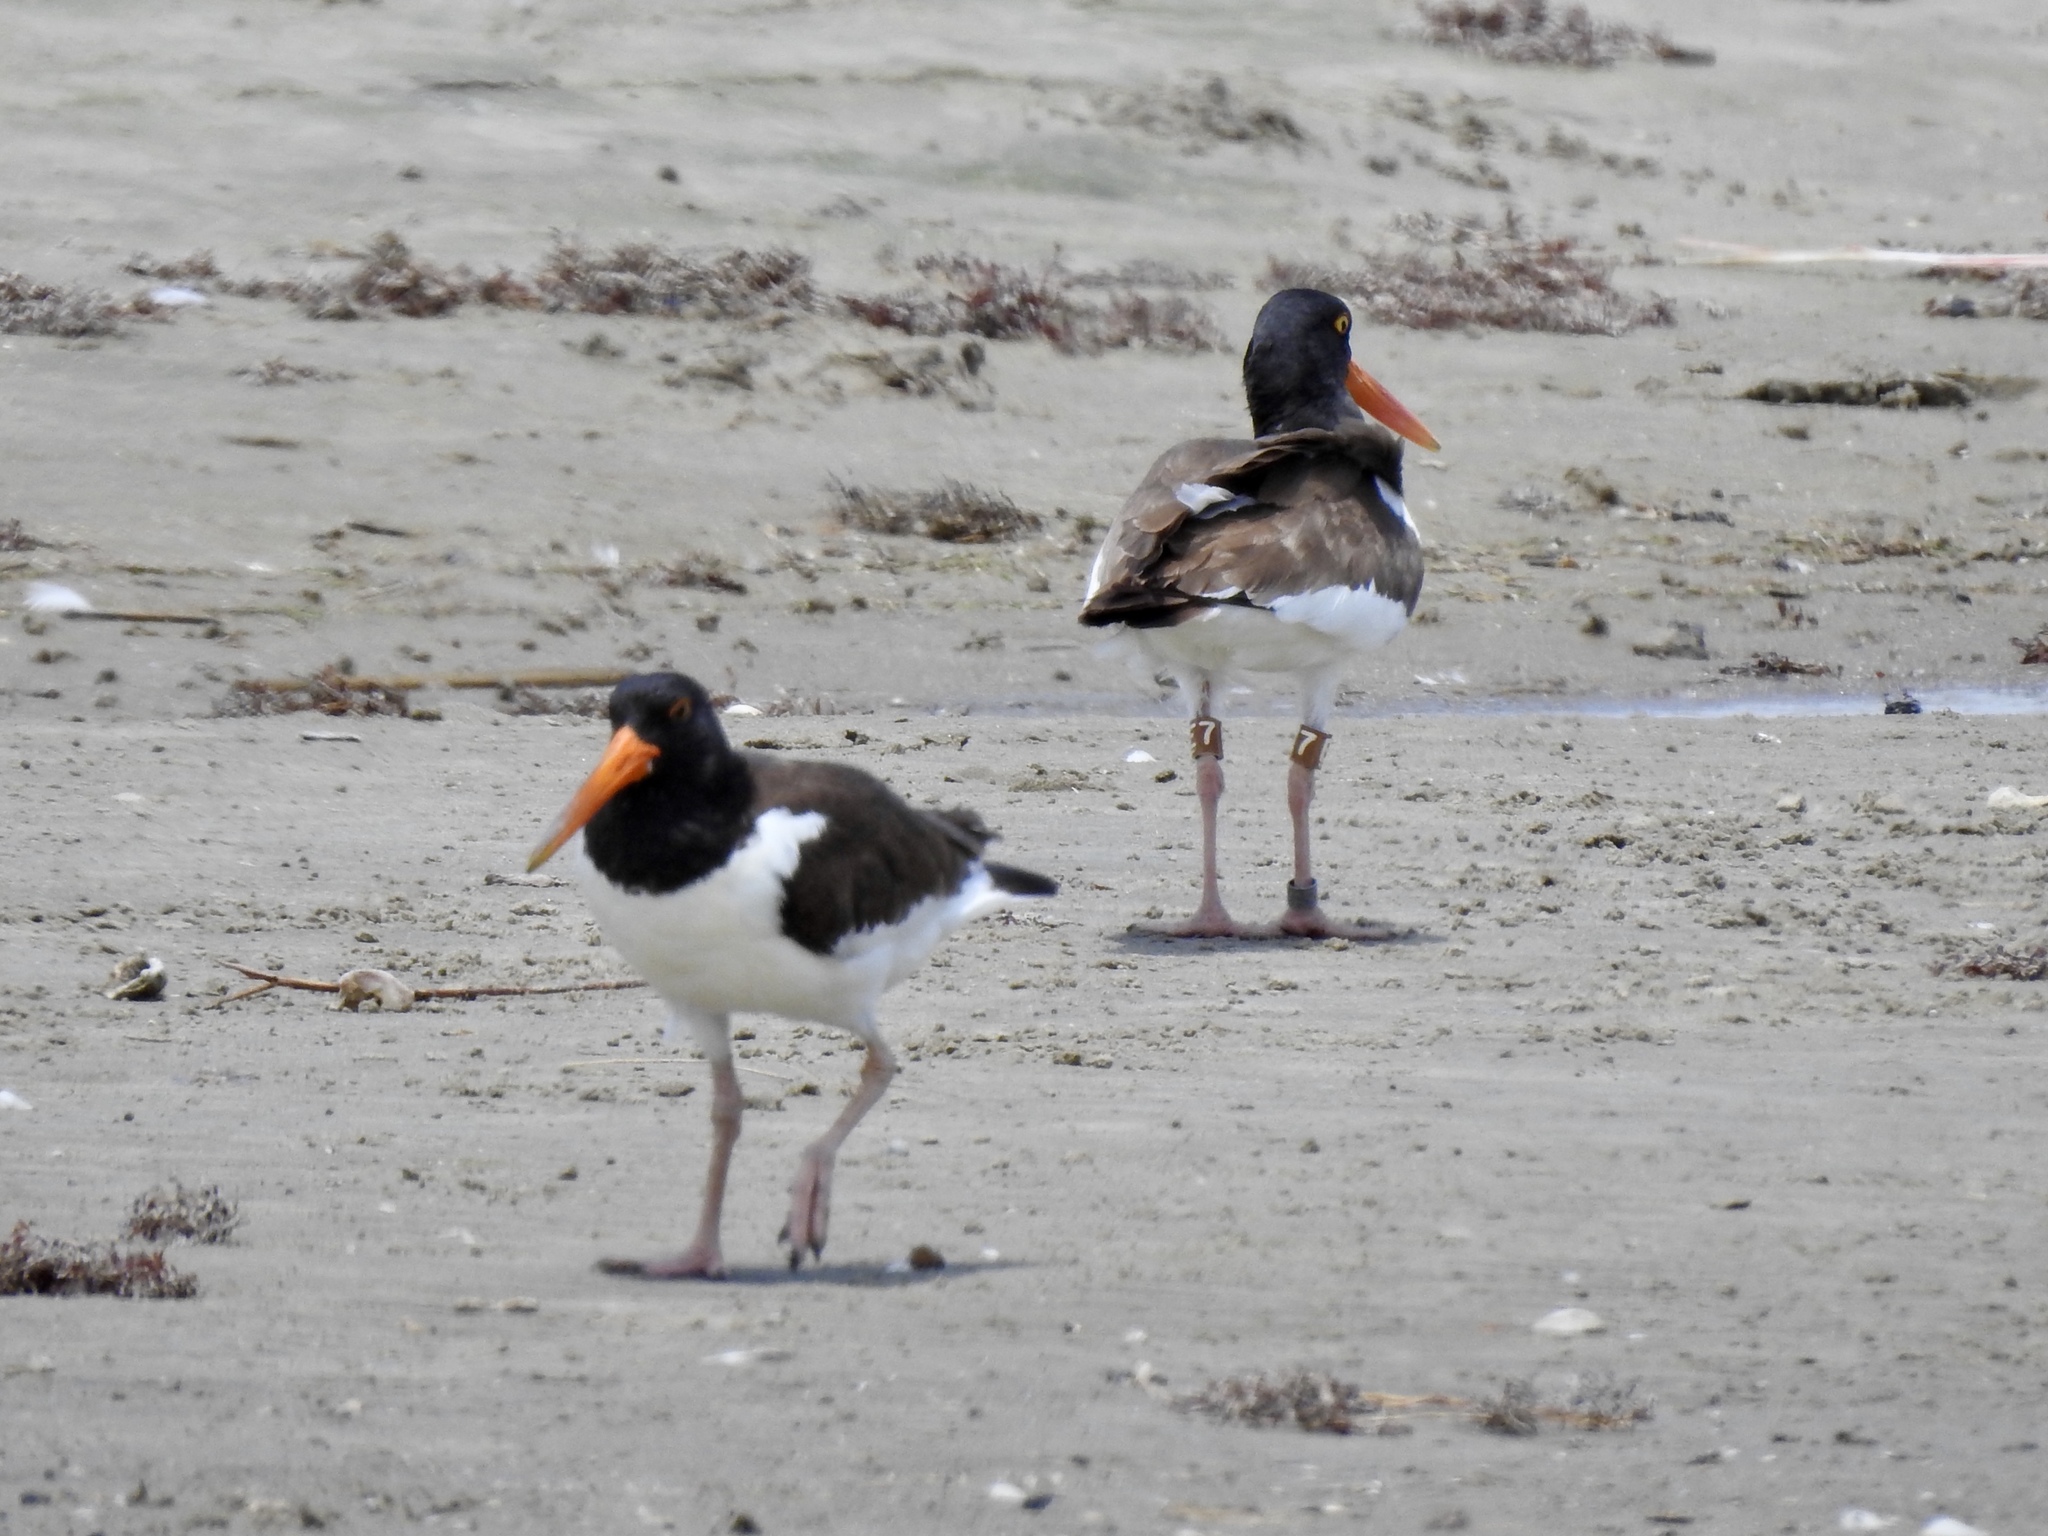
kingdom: Animalia
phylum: Chordata
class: Aves
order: Charadriiformes
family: Haematopodidae
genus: Haematopus
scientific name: Haematopus palliatus
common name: American oystercatcher
